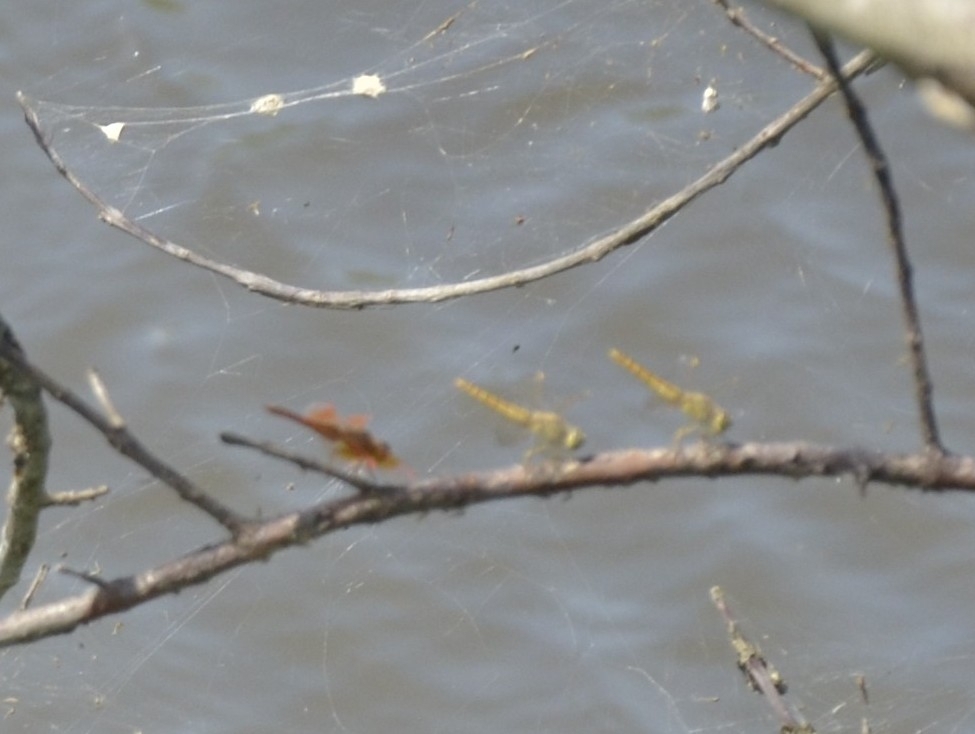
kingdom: Animalia
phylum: Arthropoda
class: Insecta
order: Odonata
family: Libellulidae
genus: Brachythemis
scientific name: Brachythemis contaminata
